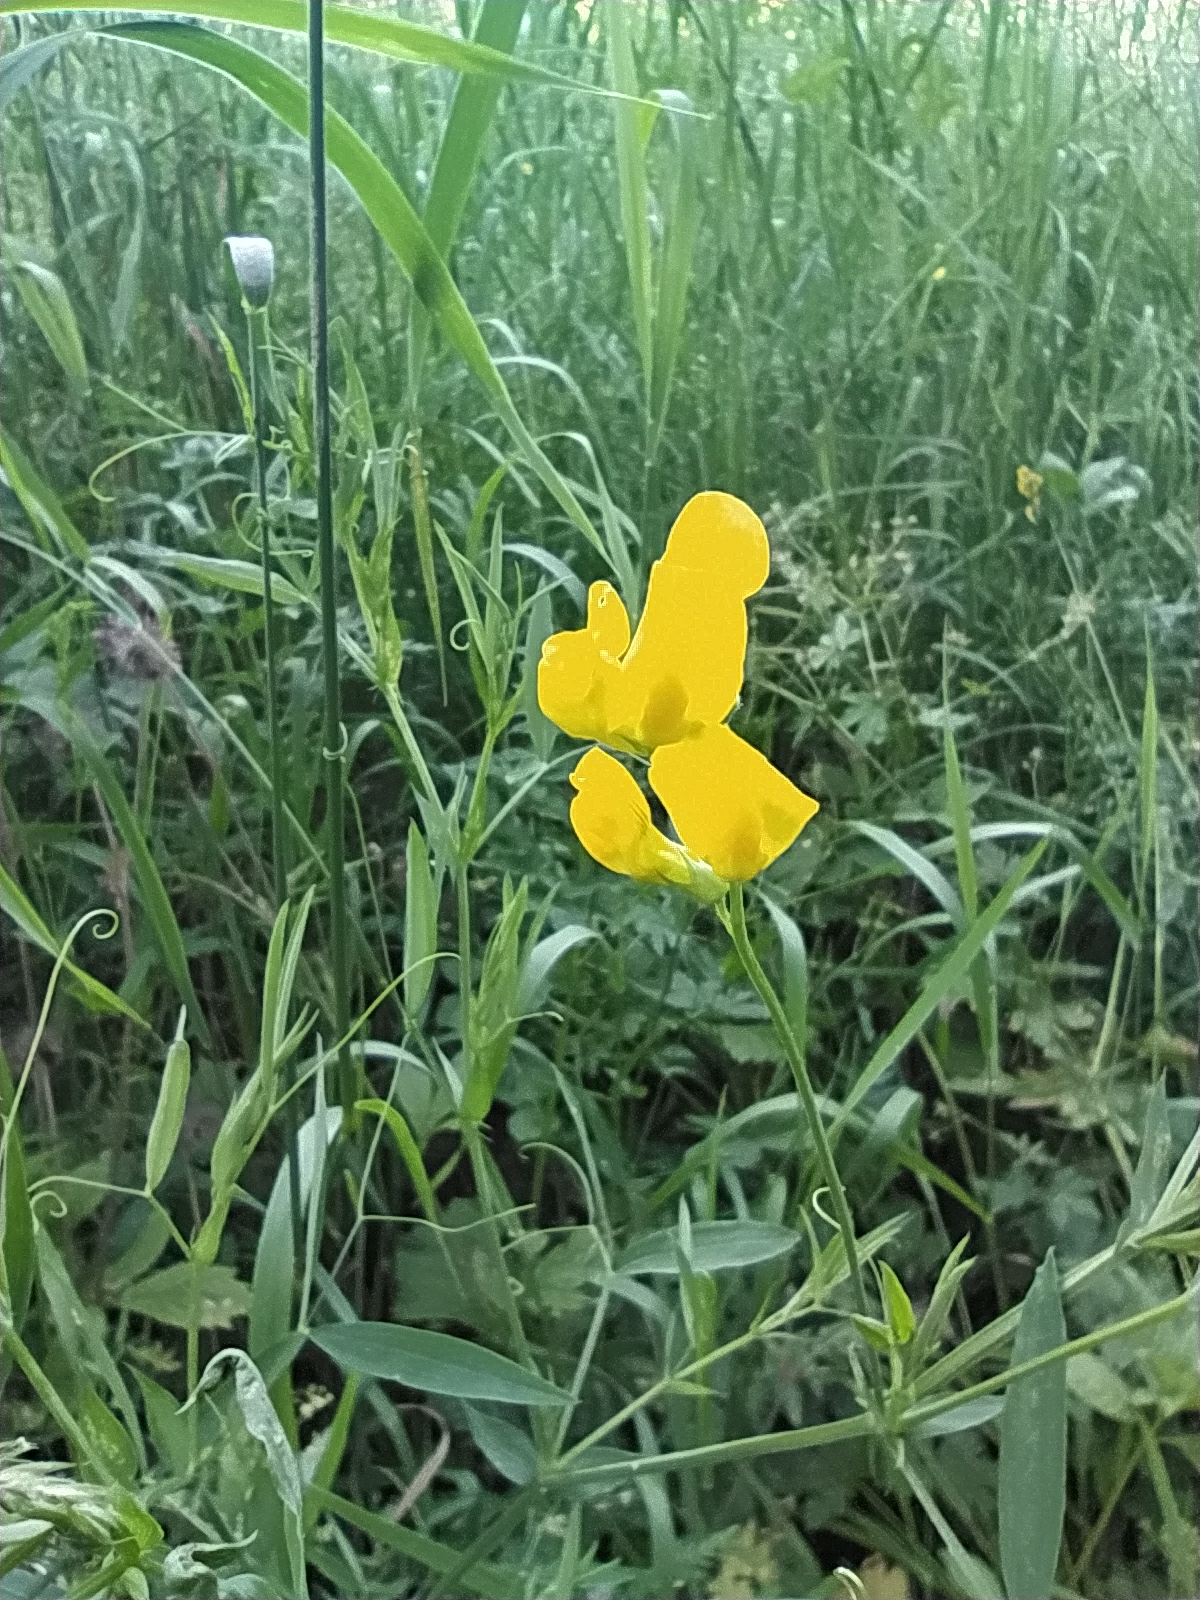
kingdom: Plantae
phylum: Tracheophyta
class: Magnoliopsida
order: Fabales
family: Fabaceae
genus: Lathyrus
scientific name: Lathyrus pratensis
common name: Meadow vetchling
